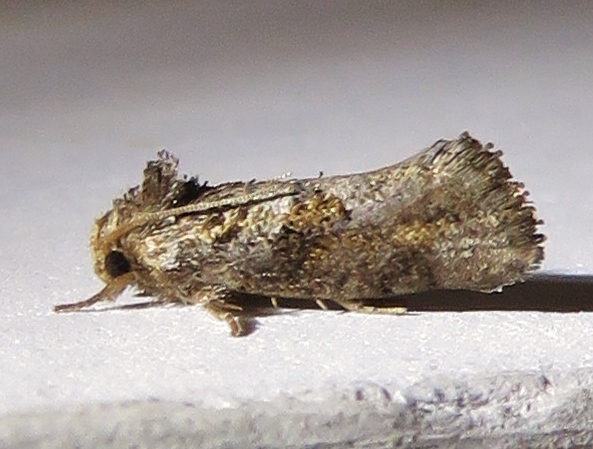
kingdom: Animalia
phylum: Arthropoda
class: Insecta
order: Lepidoptera
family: Tineidae
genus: Acrolophus
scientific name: Acrolophus piger
